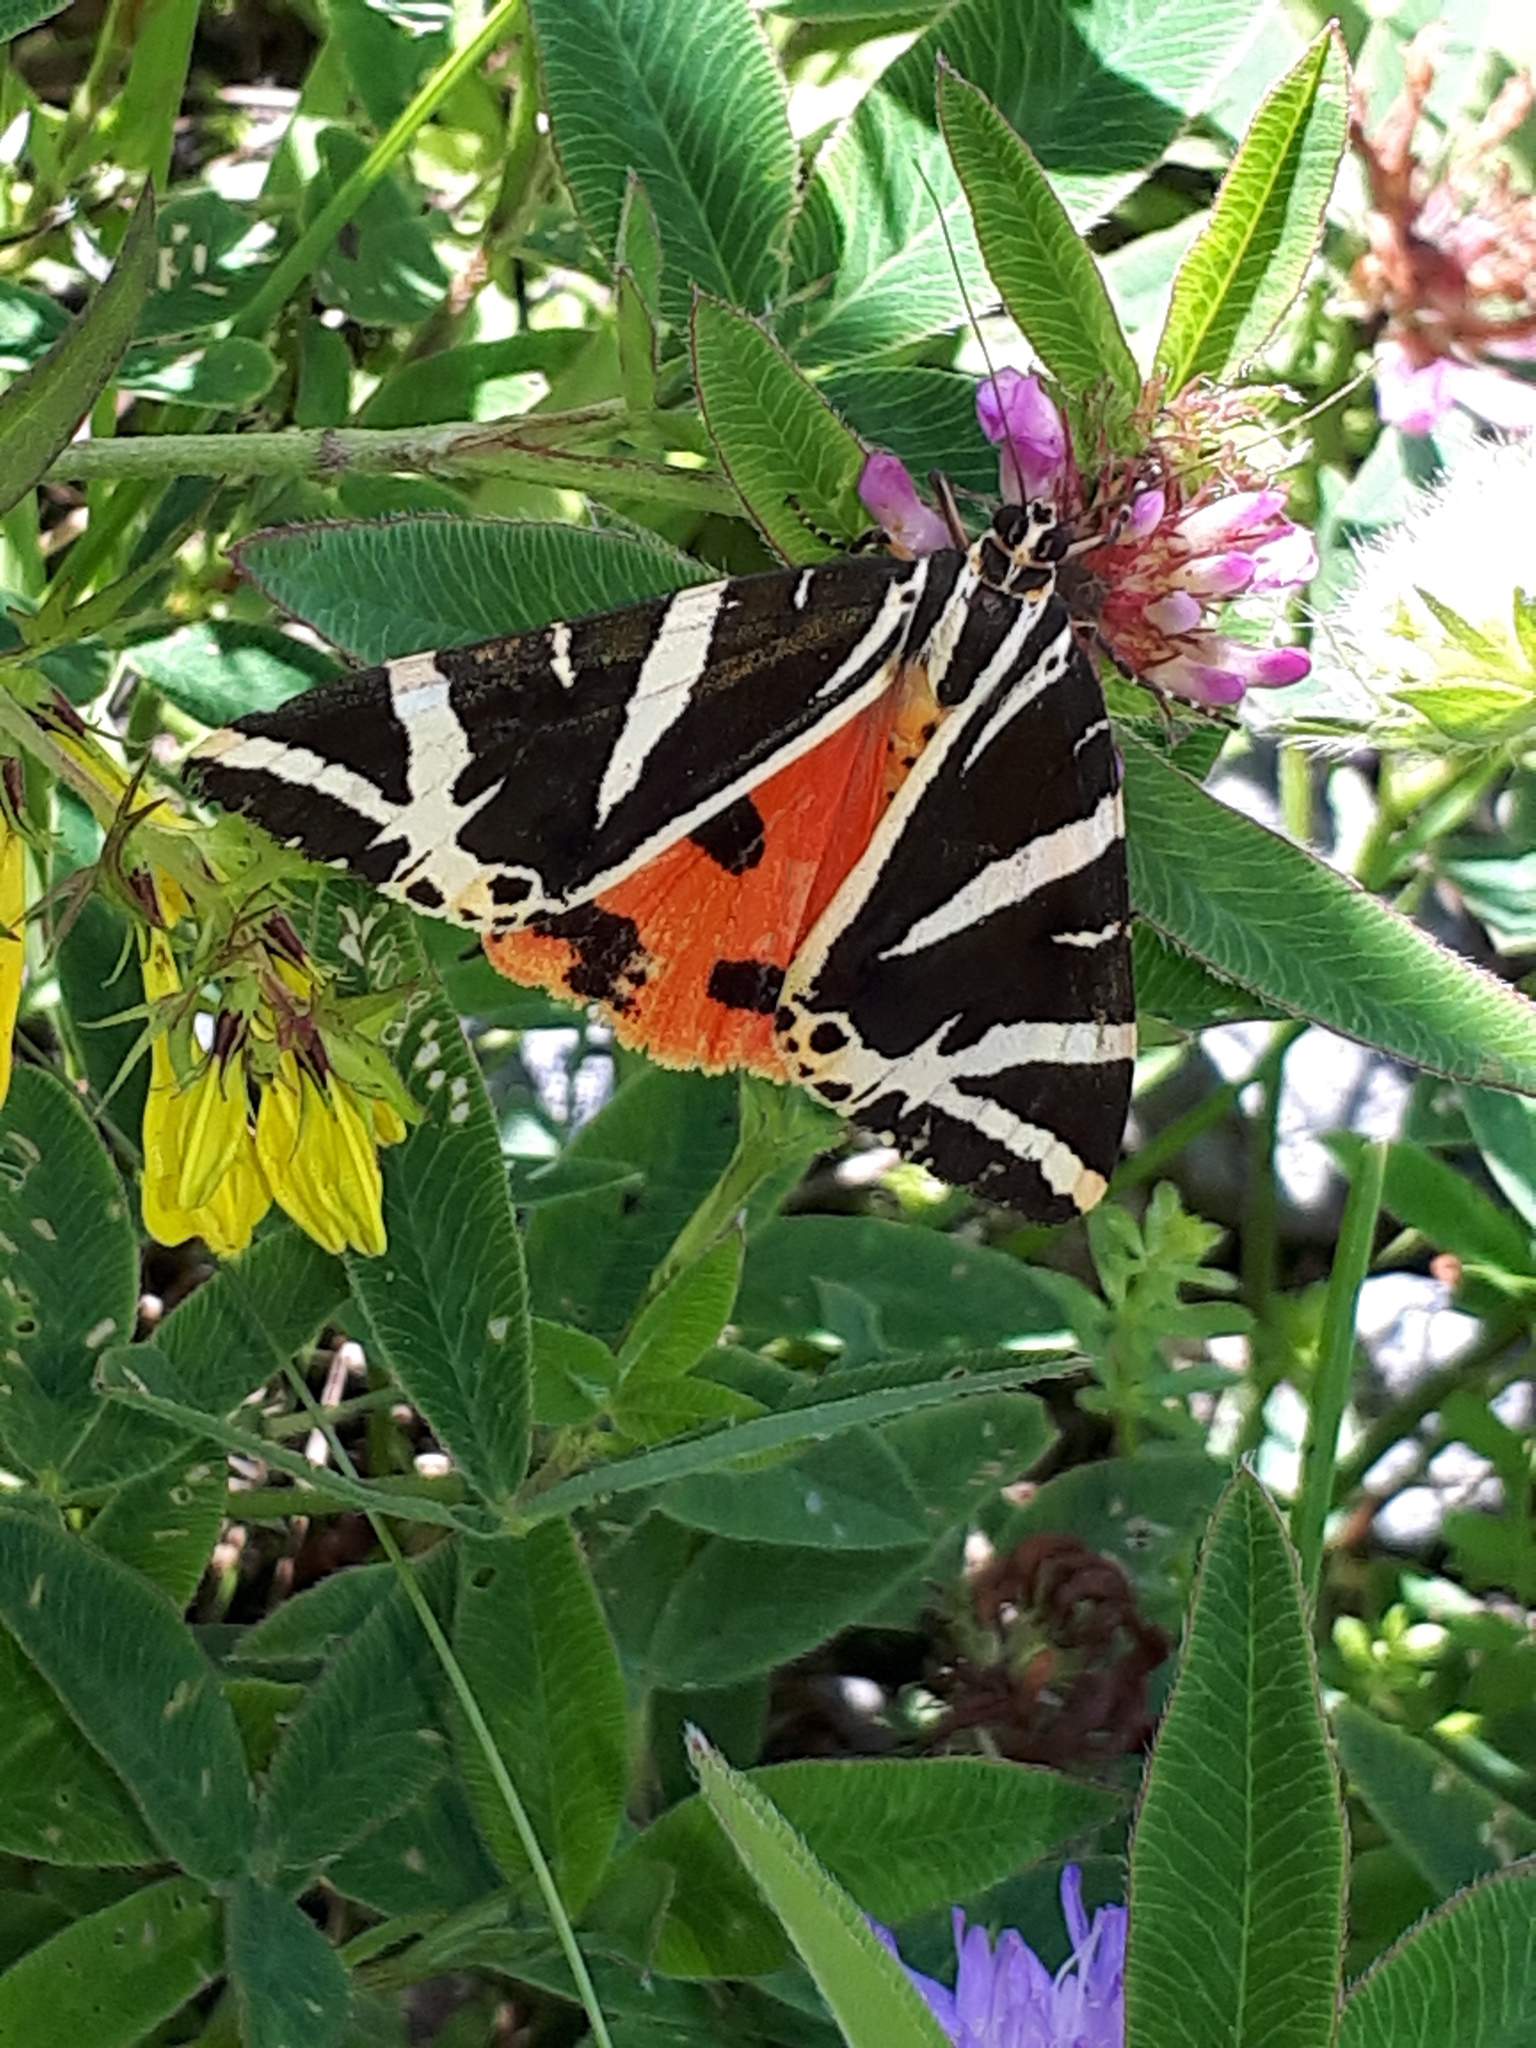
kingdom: Animalia
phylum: Arthropoda
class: Insecta
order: Lepidoptera
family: Erebidae
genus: Euplagia
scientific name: Euplagia quadripunctaria
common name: Jersey tiger
